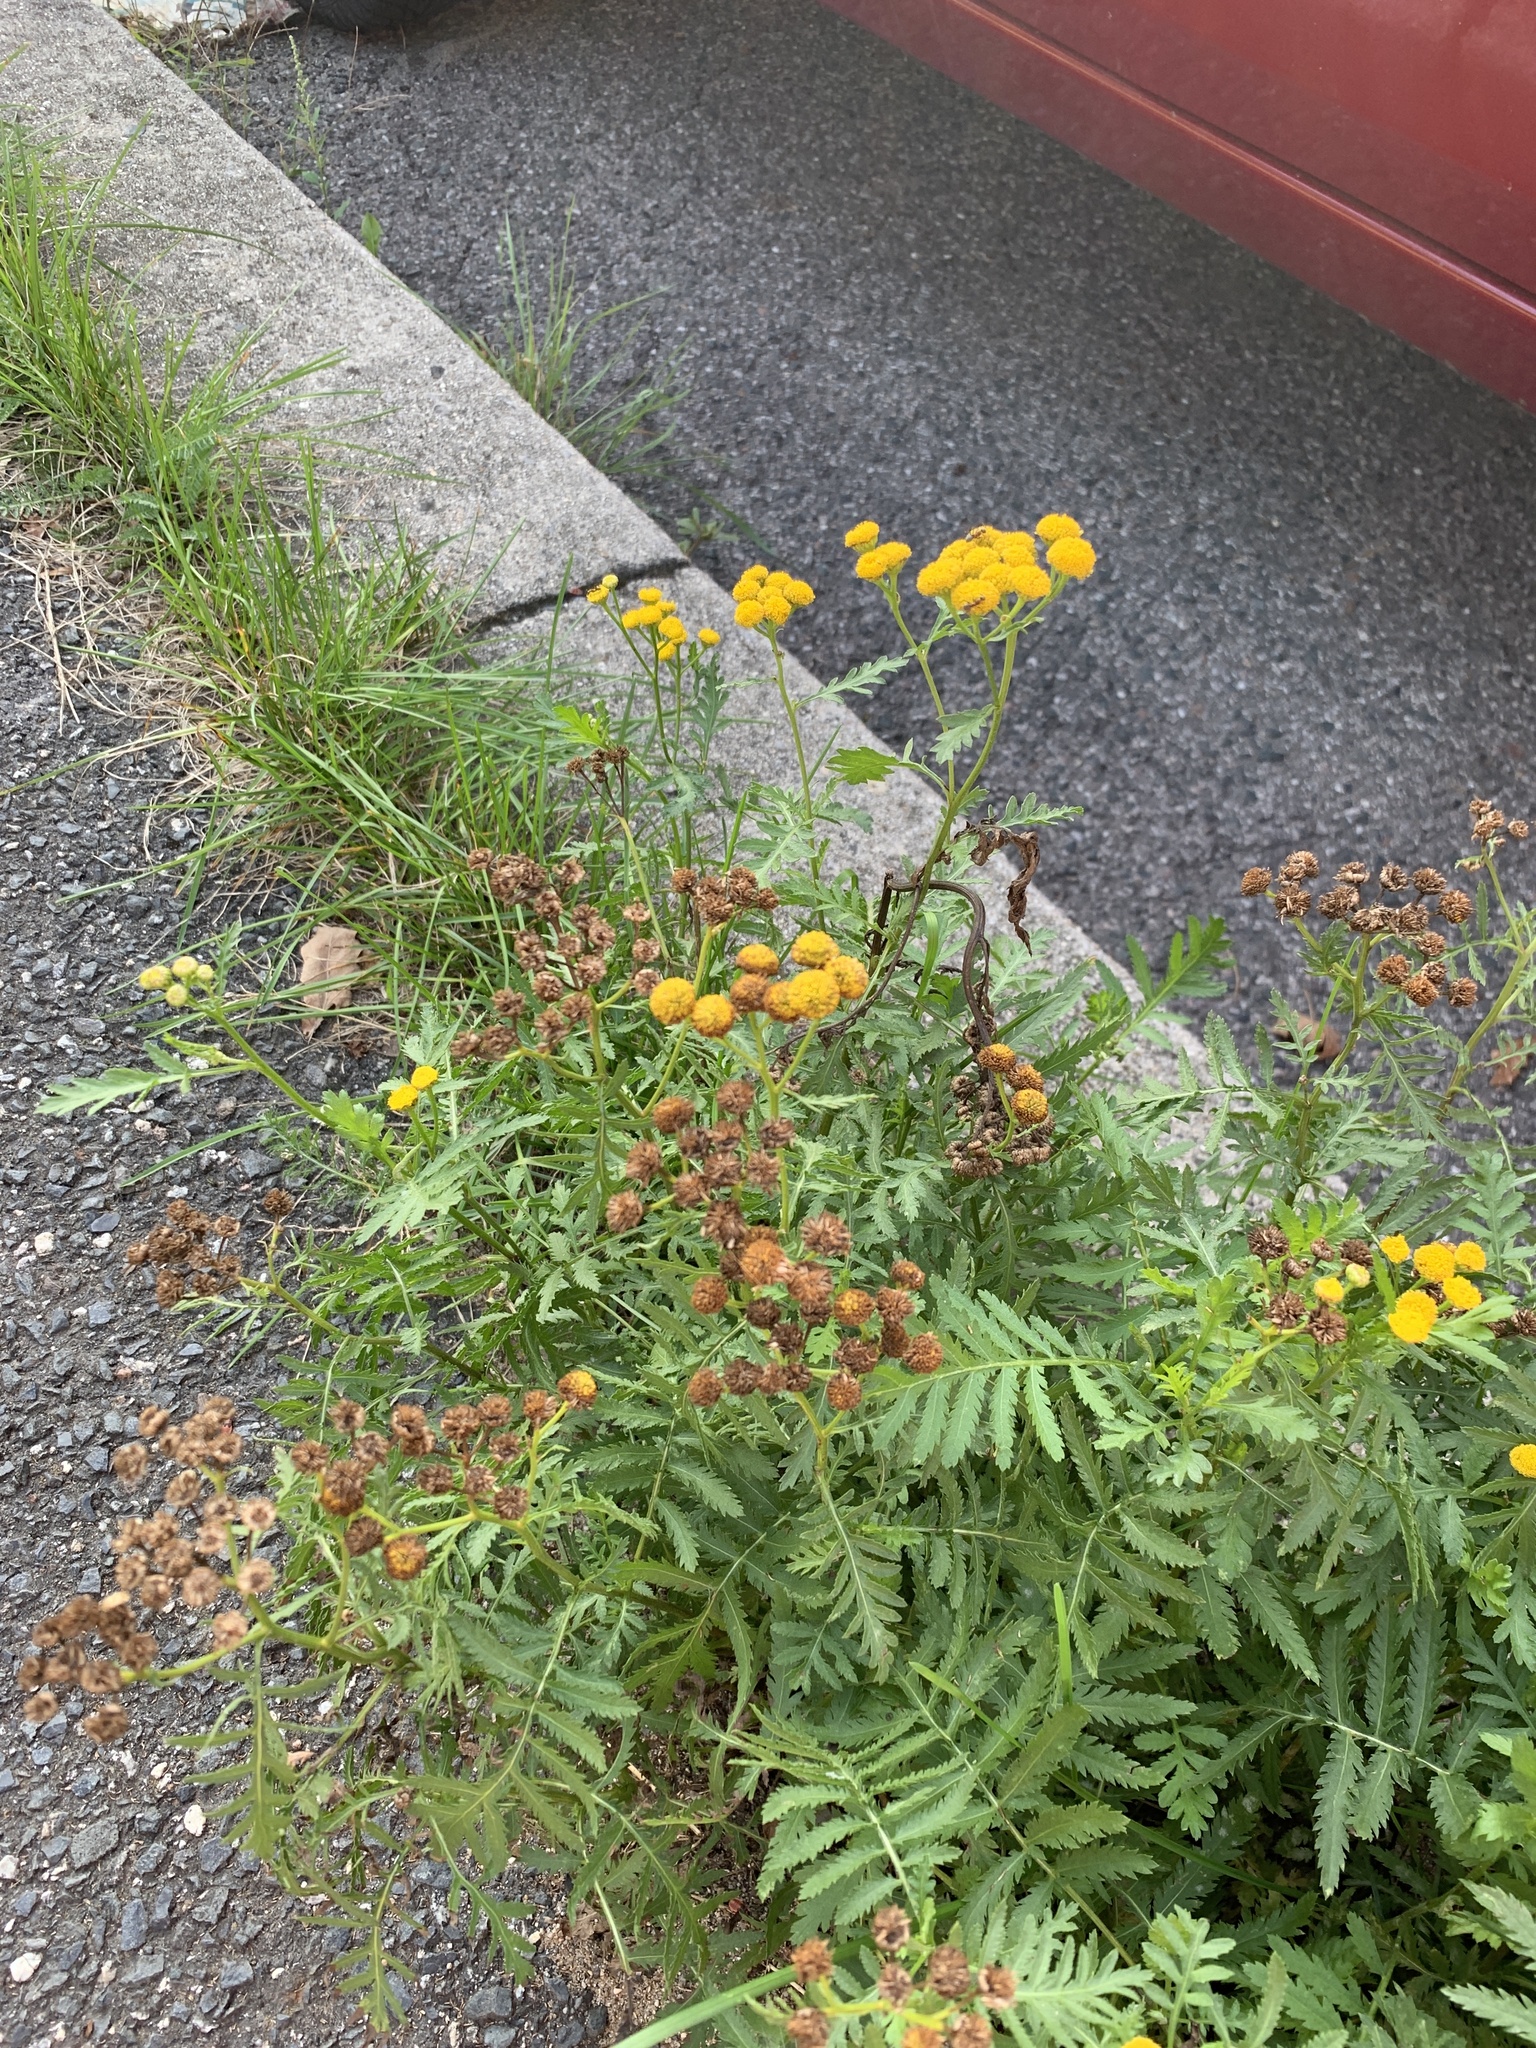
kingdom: Plantae
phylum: Tracheophyta
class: Magnoliopsida
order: Asterales
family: Asteraceae
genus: Tanacetum
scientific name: Tanacetum vulgare
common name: Common tansy
